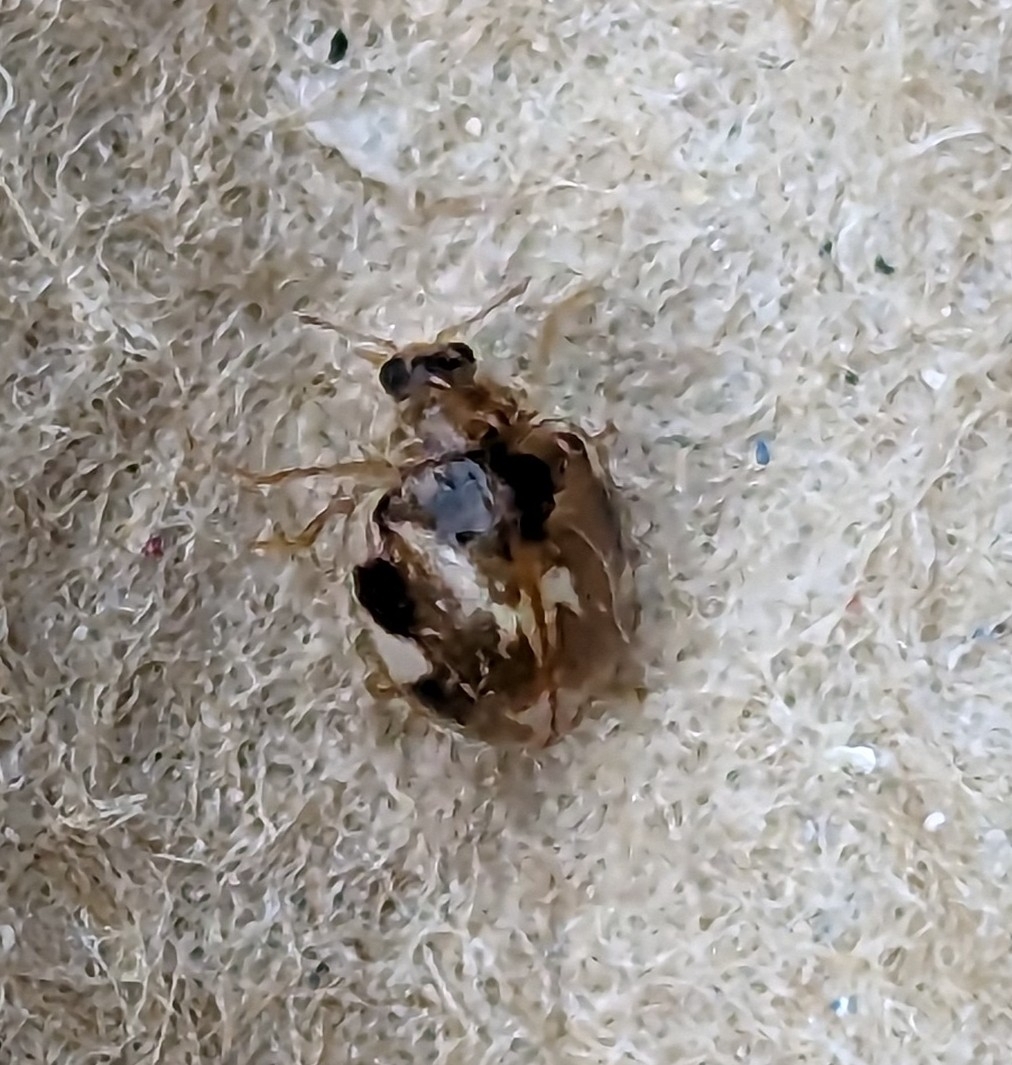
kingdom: Animalia
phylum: Arthropoda
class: Insecta
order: Coleoptera
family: Coccinellidae
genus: Psyllobora
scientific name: Psyllobora vigintimaculata
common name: Ladybird beetle
